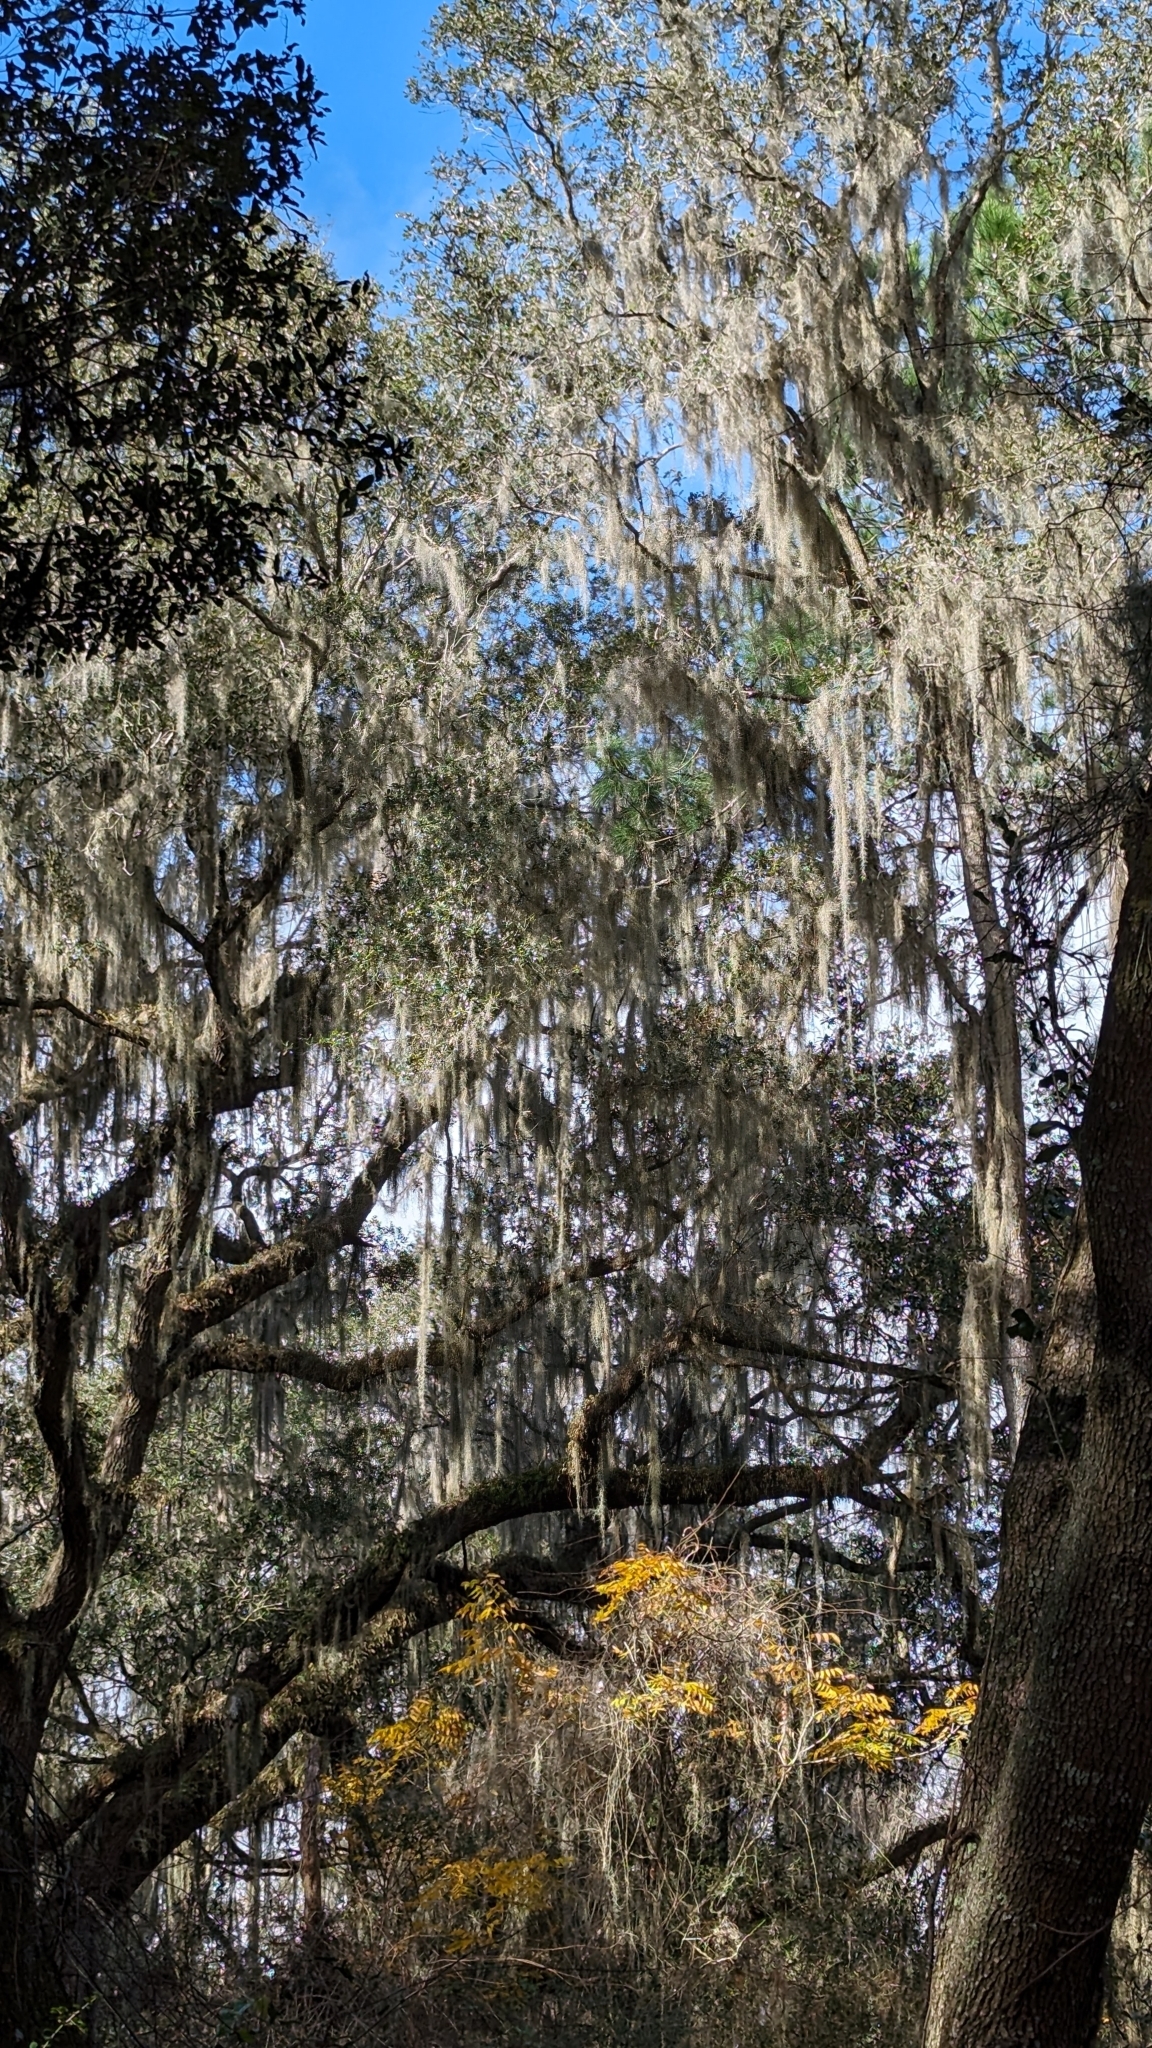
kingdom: Plantae
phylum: Tracheophyta
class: Liliopsida
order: Poales
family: Bromeliaceae
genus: Tillandsia
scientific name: Tillandsia usneoides
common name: Spanish moss
